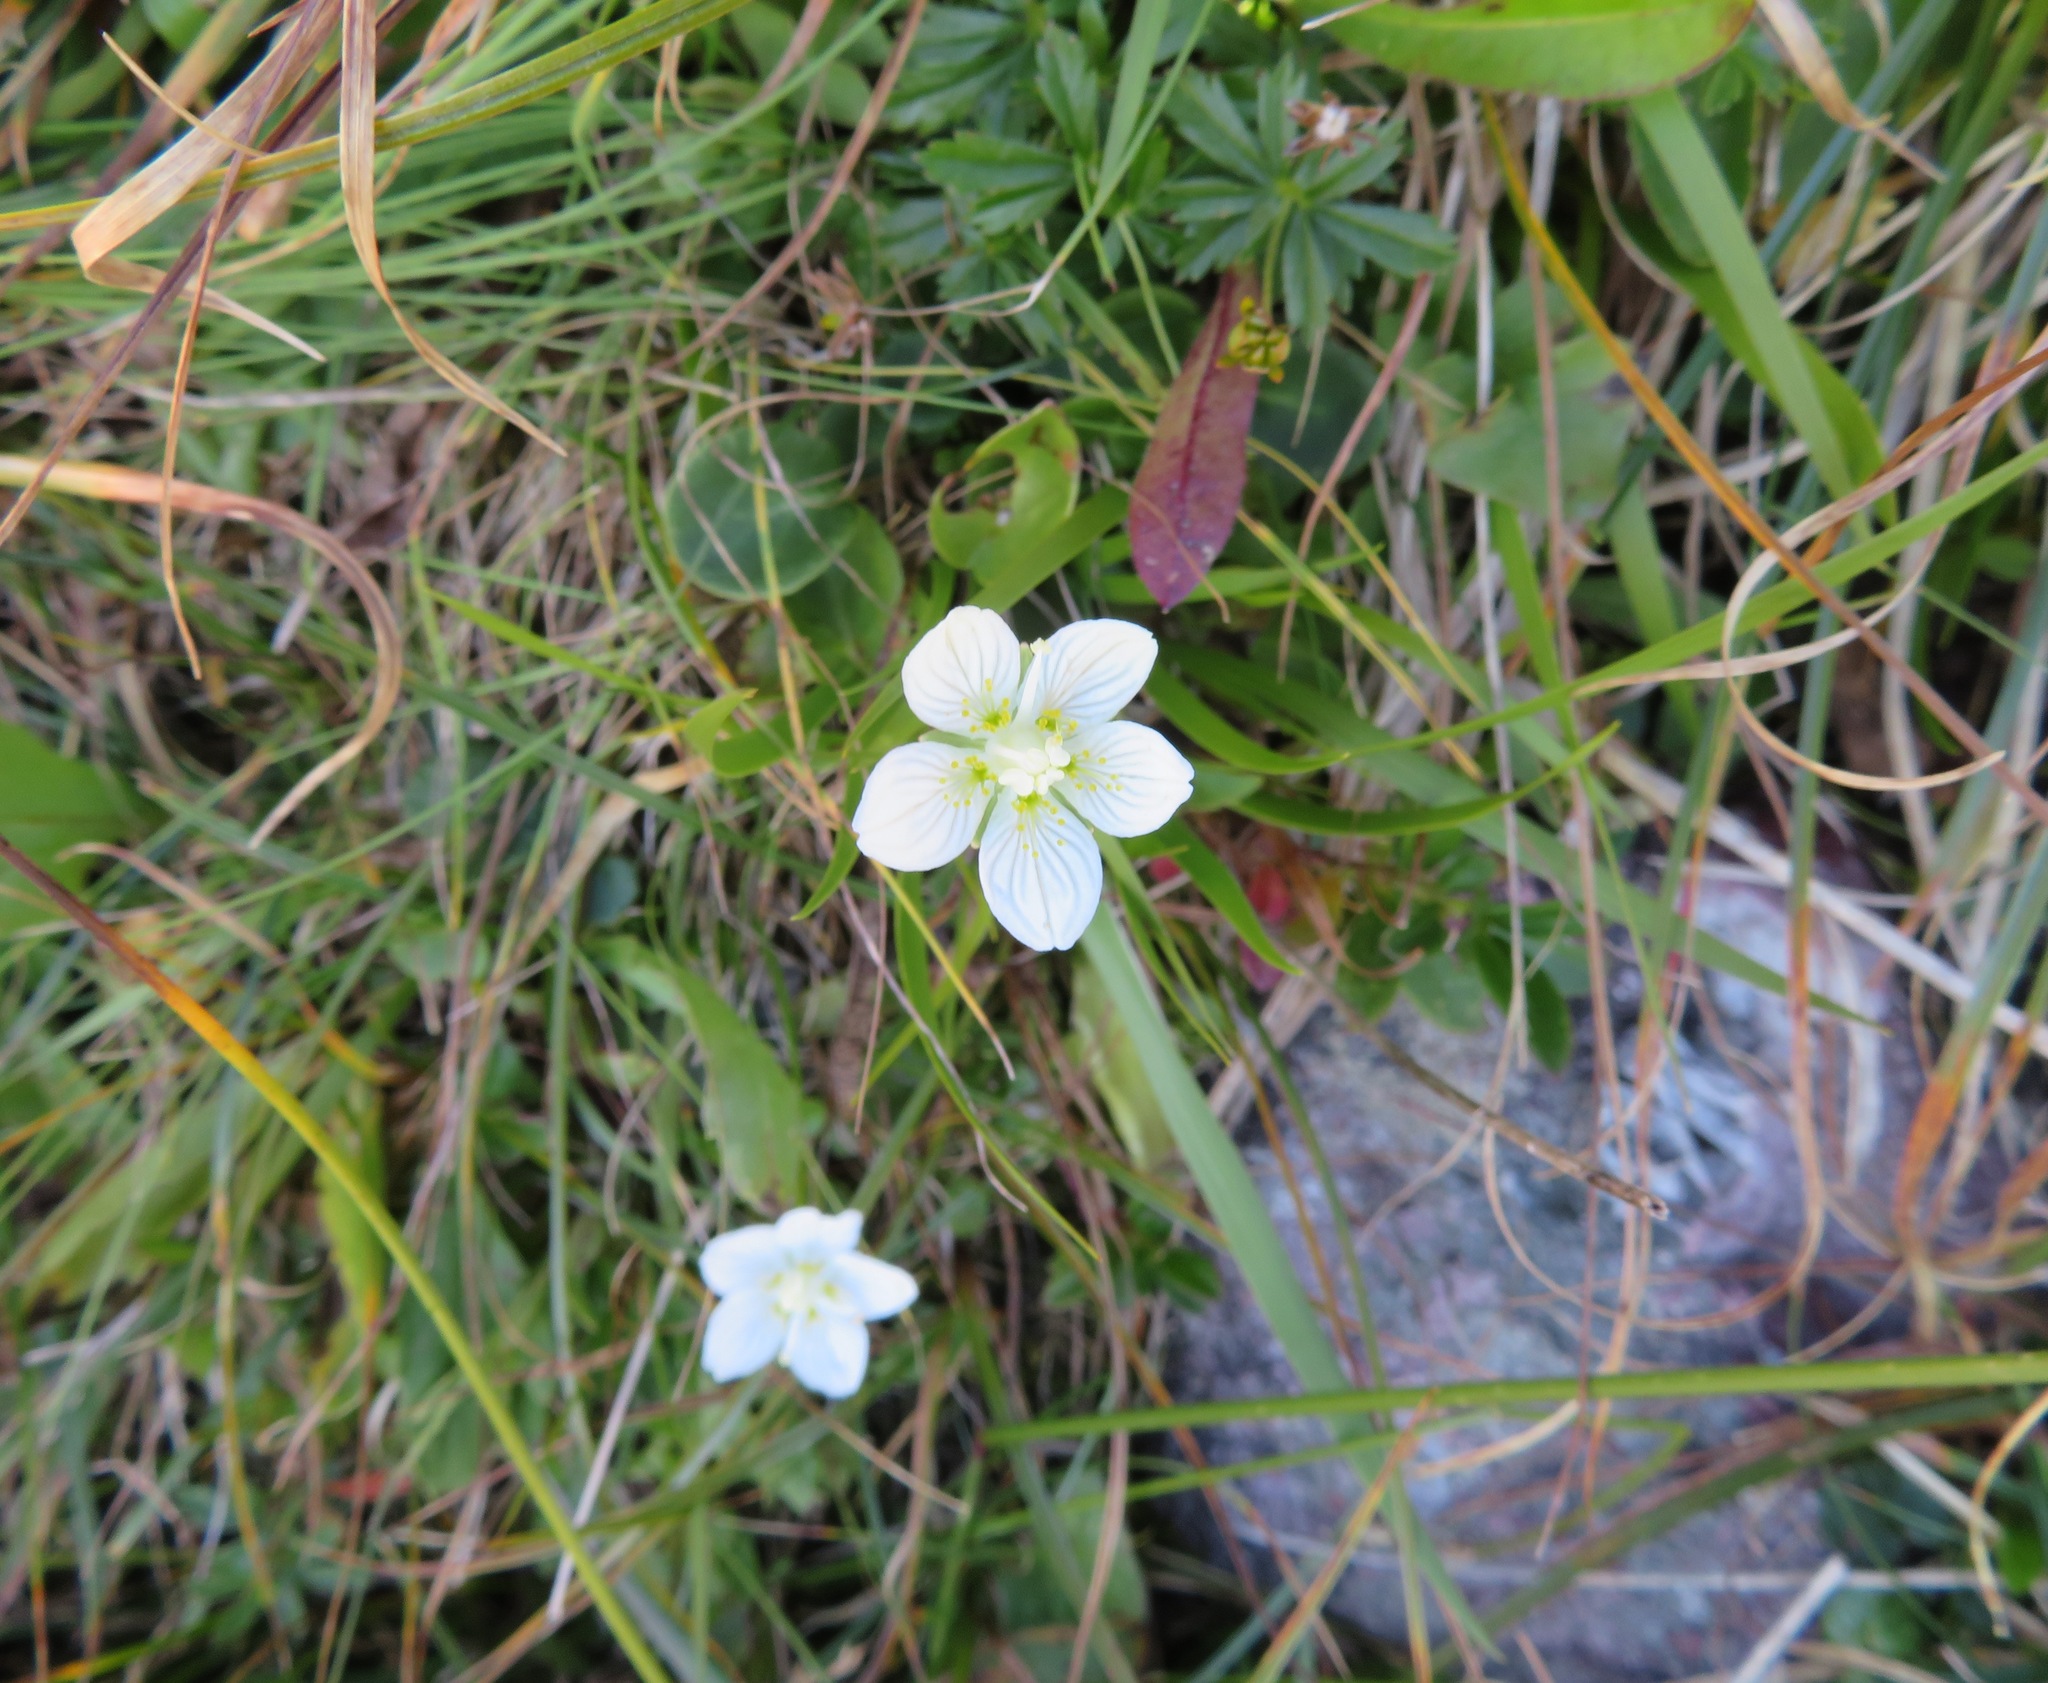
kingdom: Plantae
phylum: Tracheophyta
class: Magnoliopsida
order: Celastrales
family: Parnassiaceae
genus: Parnassia
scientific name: Parnassia palustris
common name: Grass-of-parnassus
